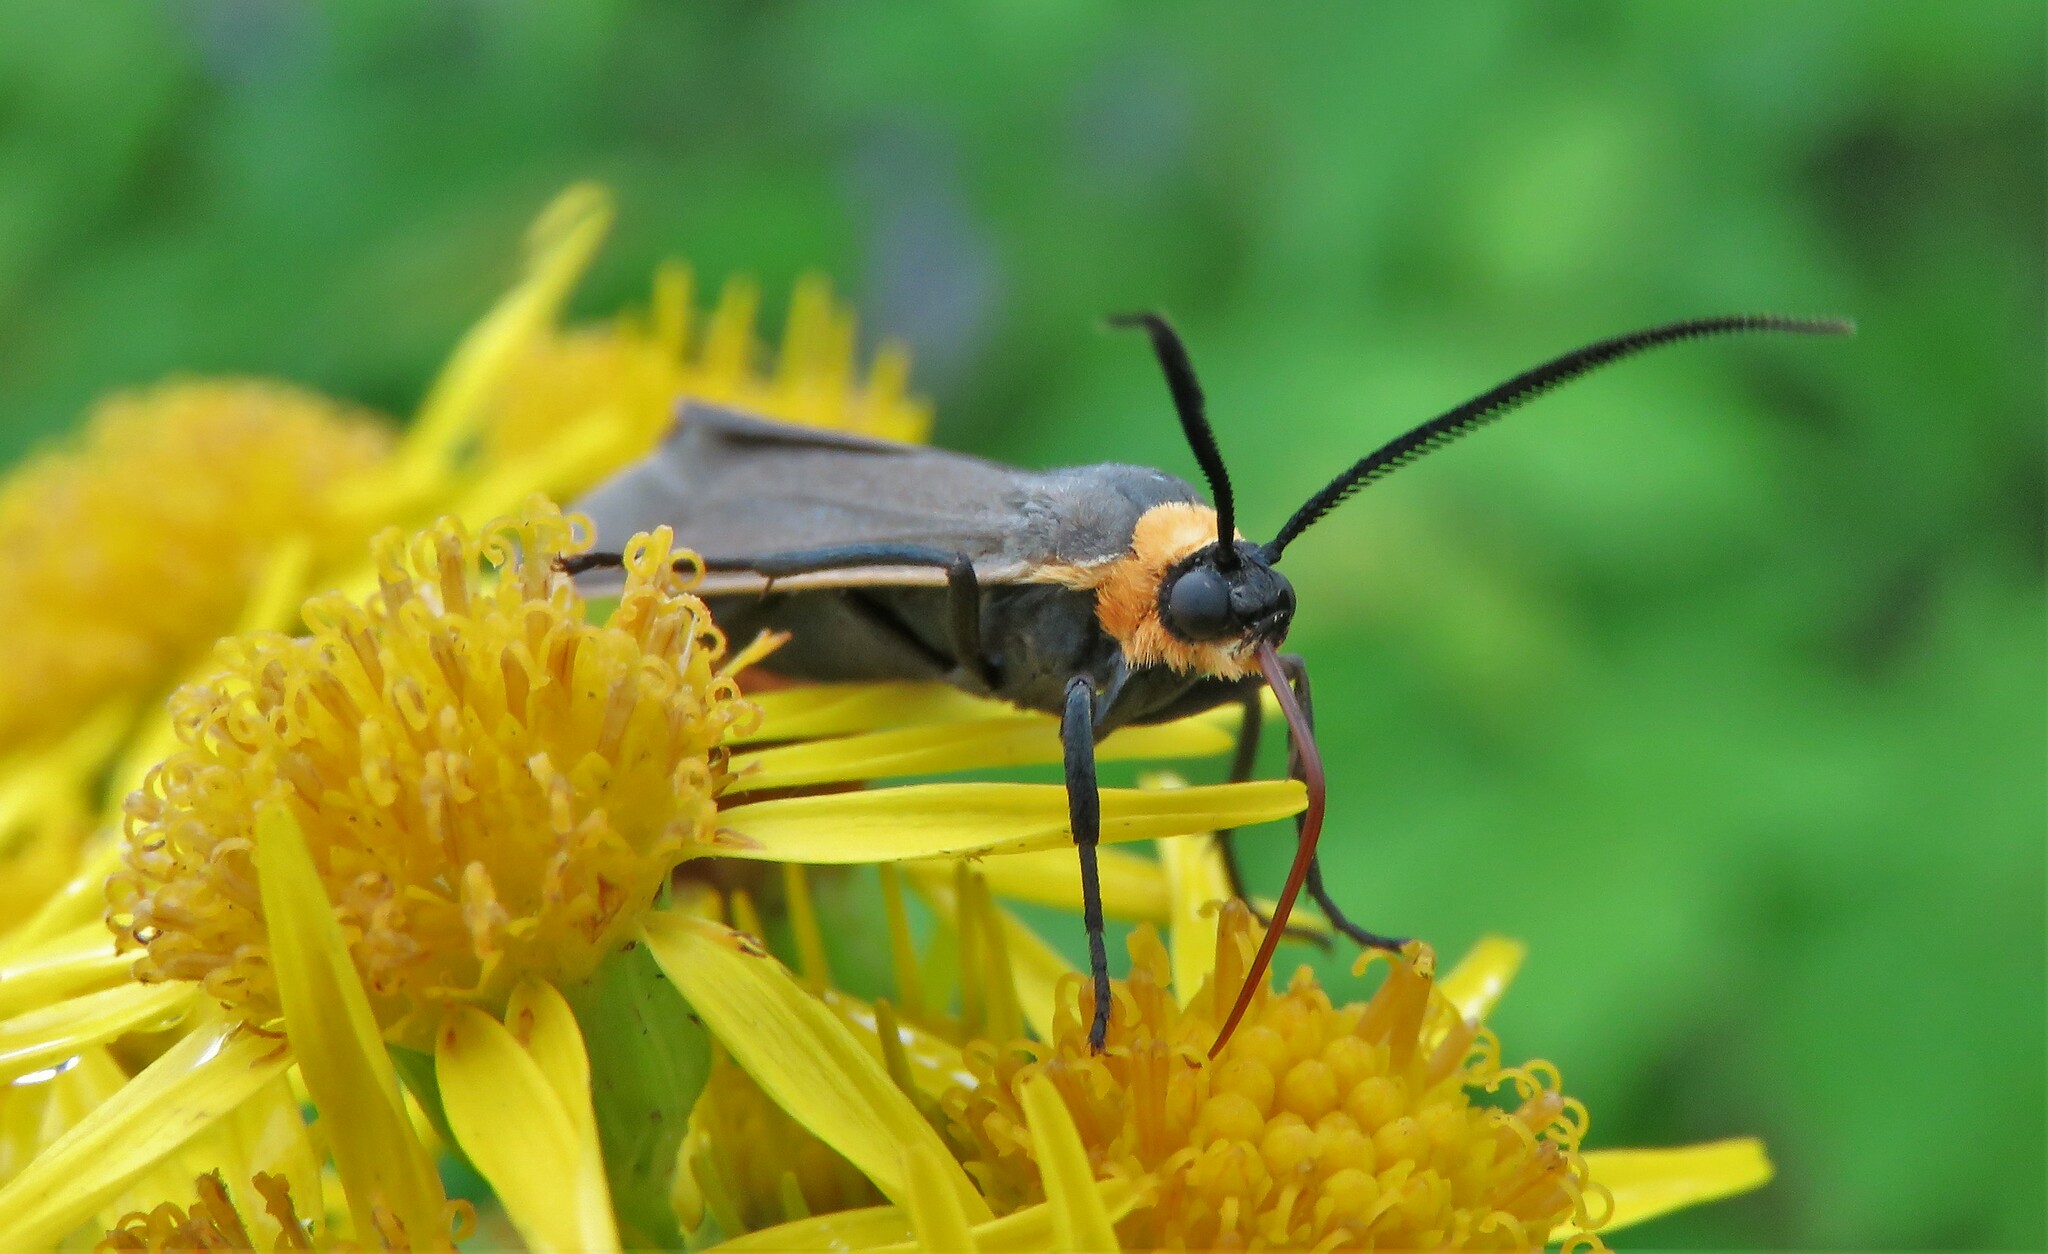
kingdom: Animalia
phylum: Arthropoda
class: Insecta
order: Lepidoptera
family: Erebidae
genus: Cisseps
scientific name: Cisseps fulvicollis
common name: Yellow-collared scape moth
